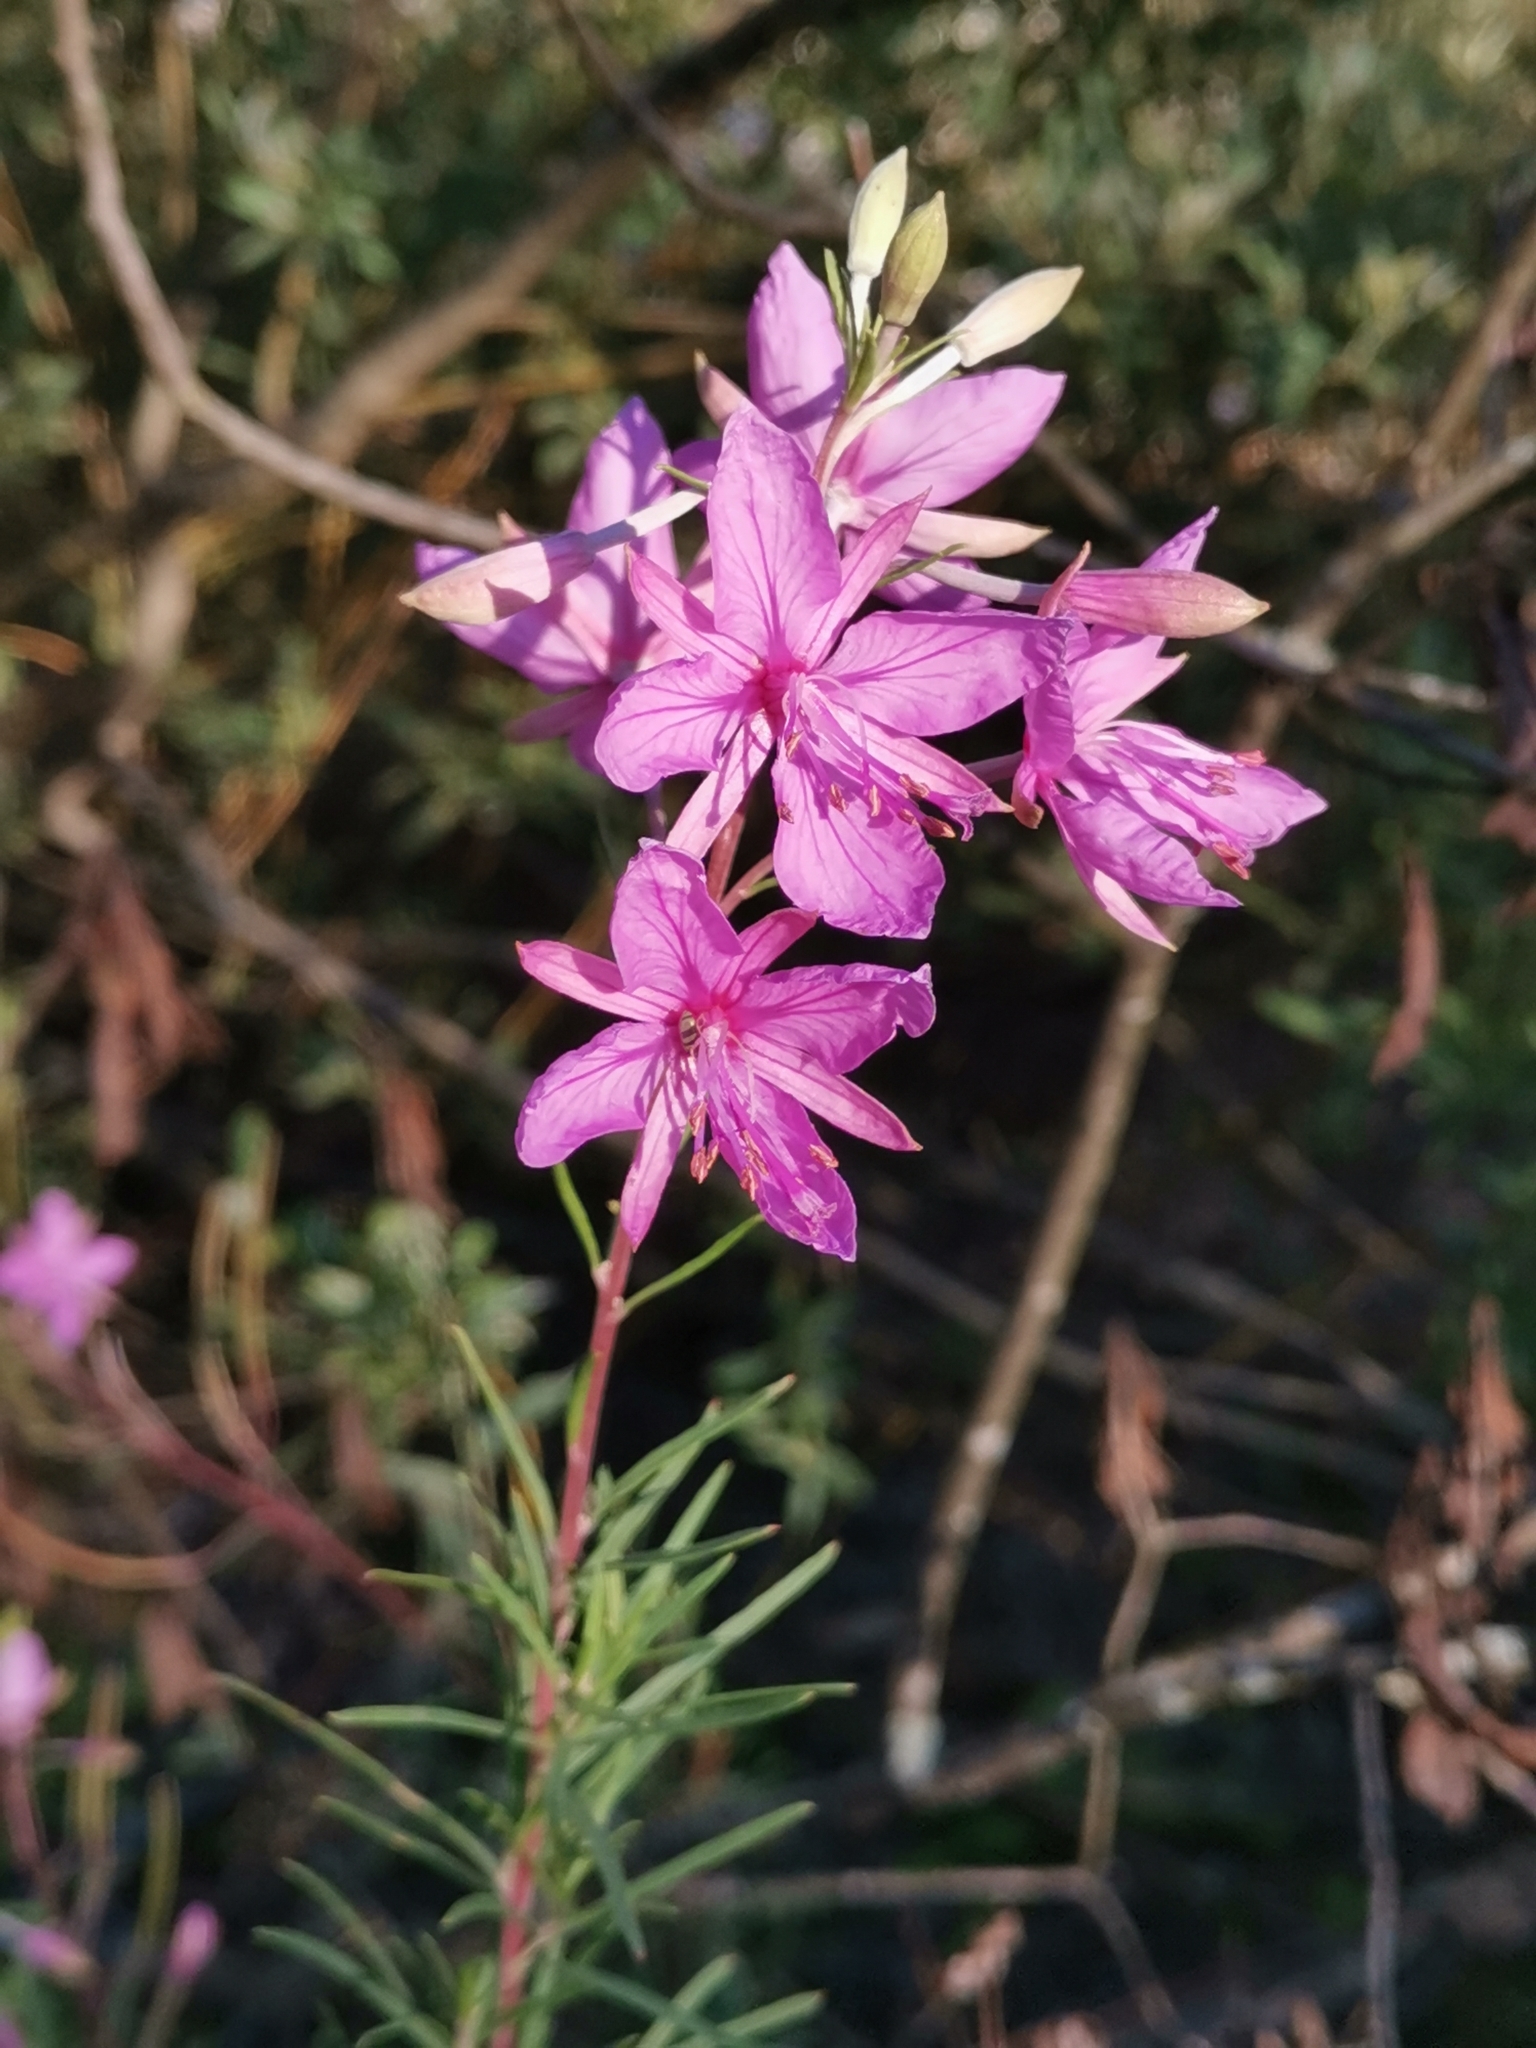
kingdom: Plantae
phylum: Tracheophyta
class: Magnoliopsida
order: Myrtales
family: Onagraceae
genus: Chamaenerion
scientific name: Chamaenerion dodonaei
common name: Rosemary-leaved willowherb
